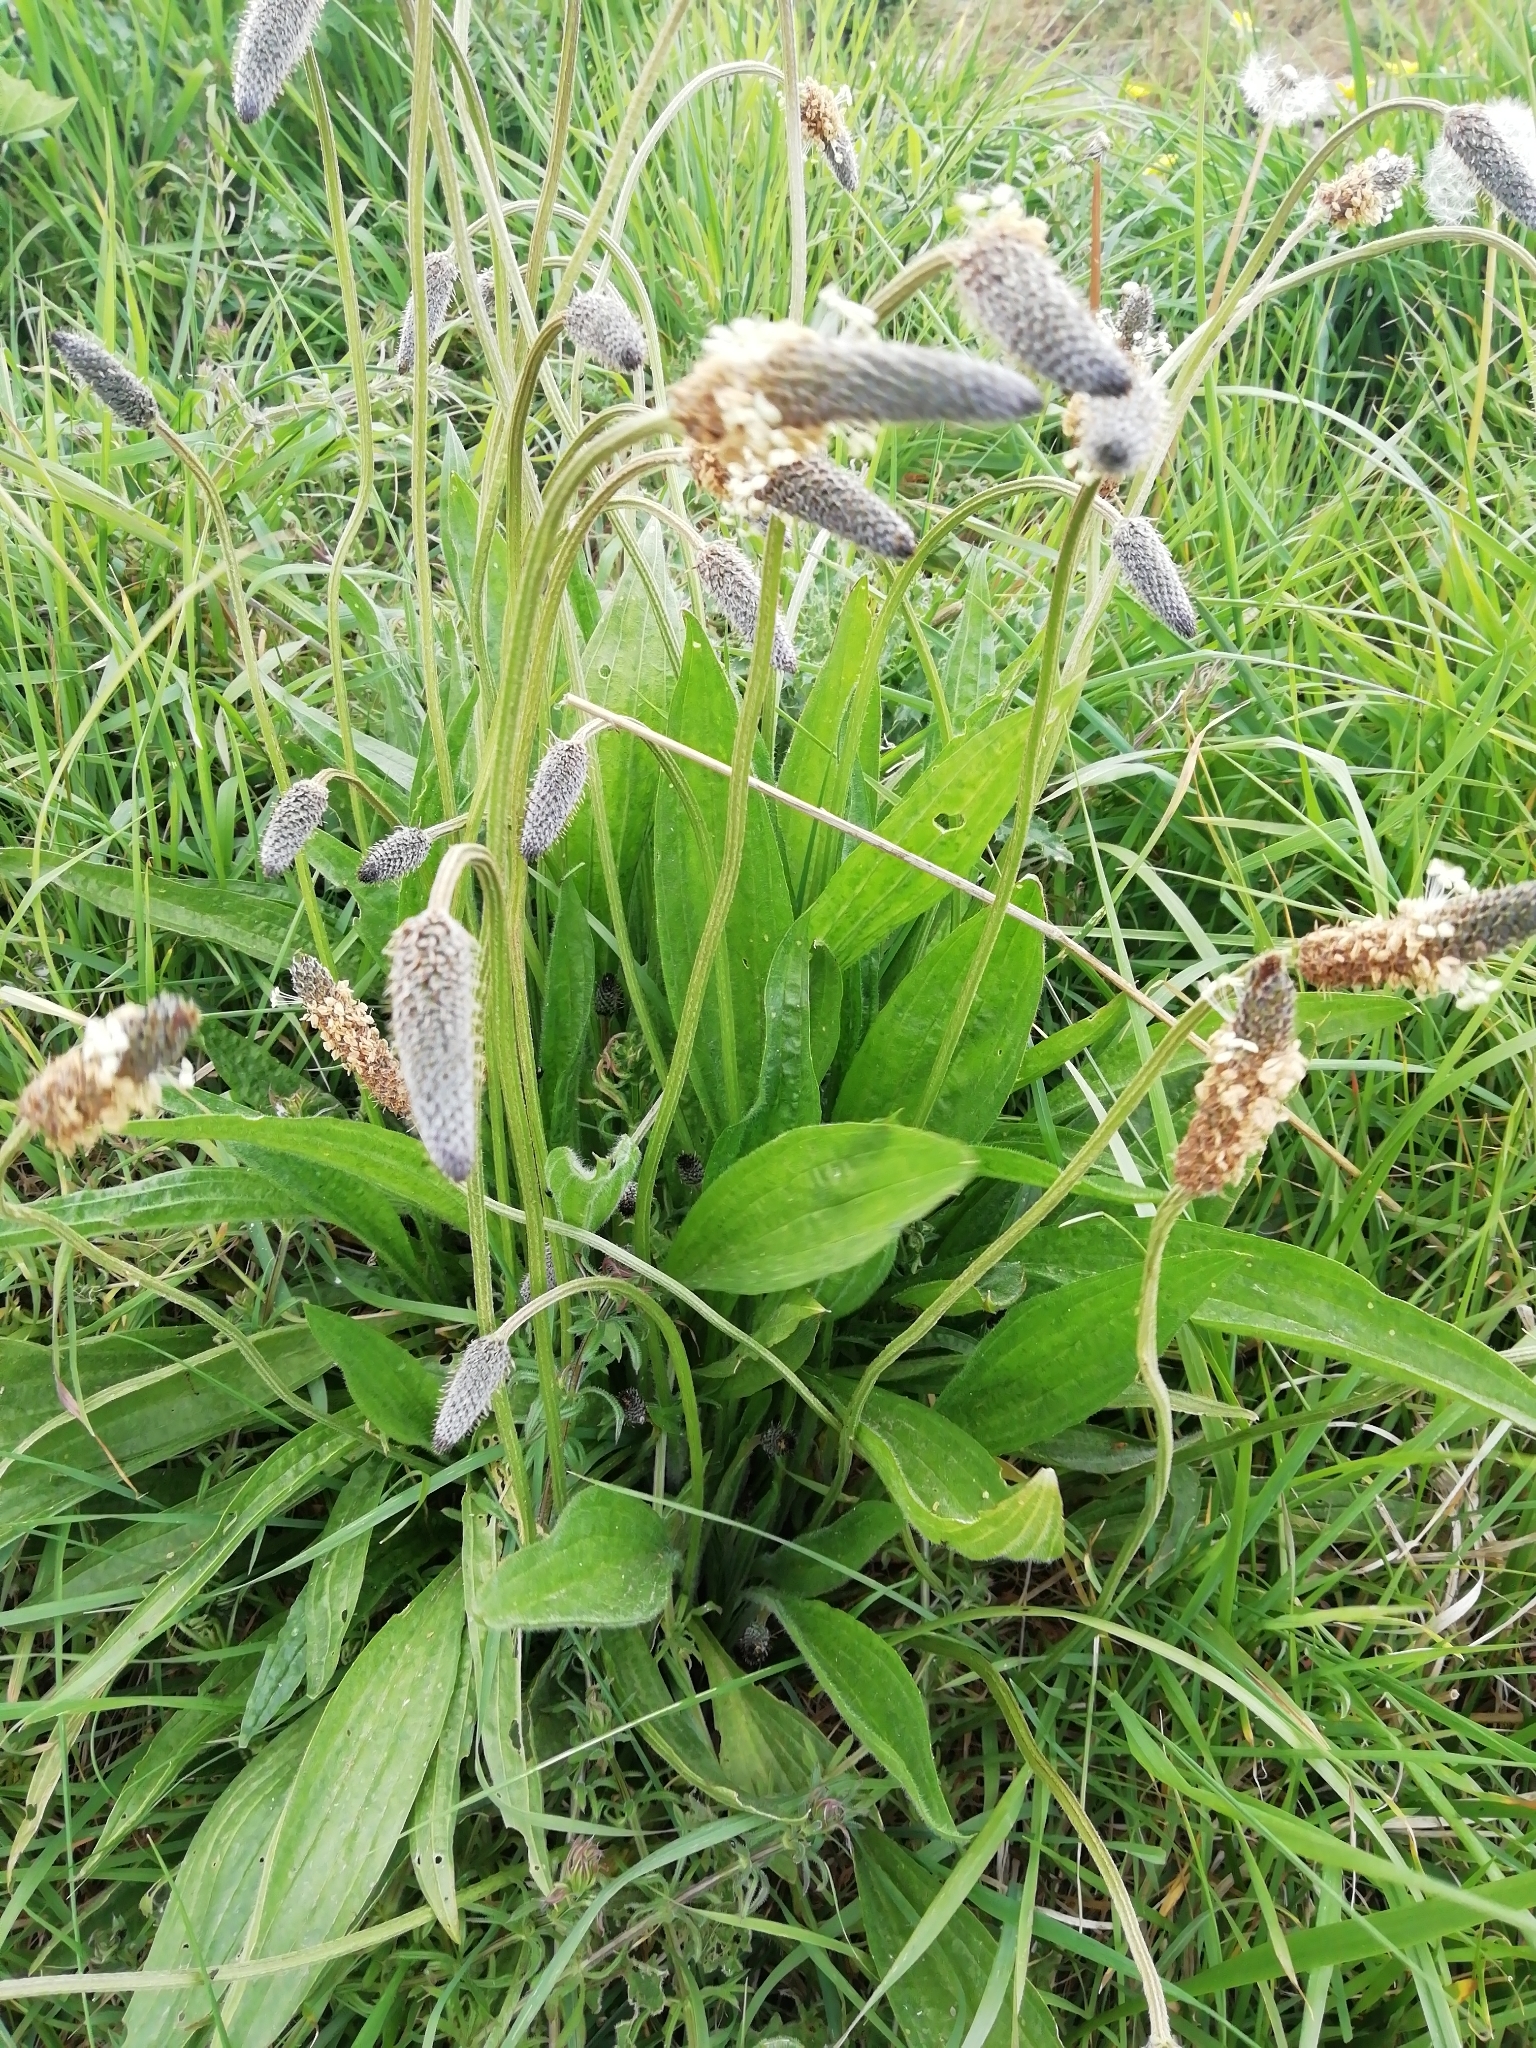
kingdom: Plantae
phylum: Tracheophyta
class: Magnoliopsida
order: Lamiales
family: Plantaginaceae
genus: Plantago
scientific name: Plantago lanceolata
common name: Ribwort plantain
